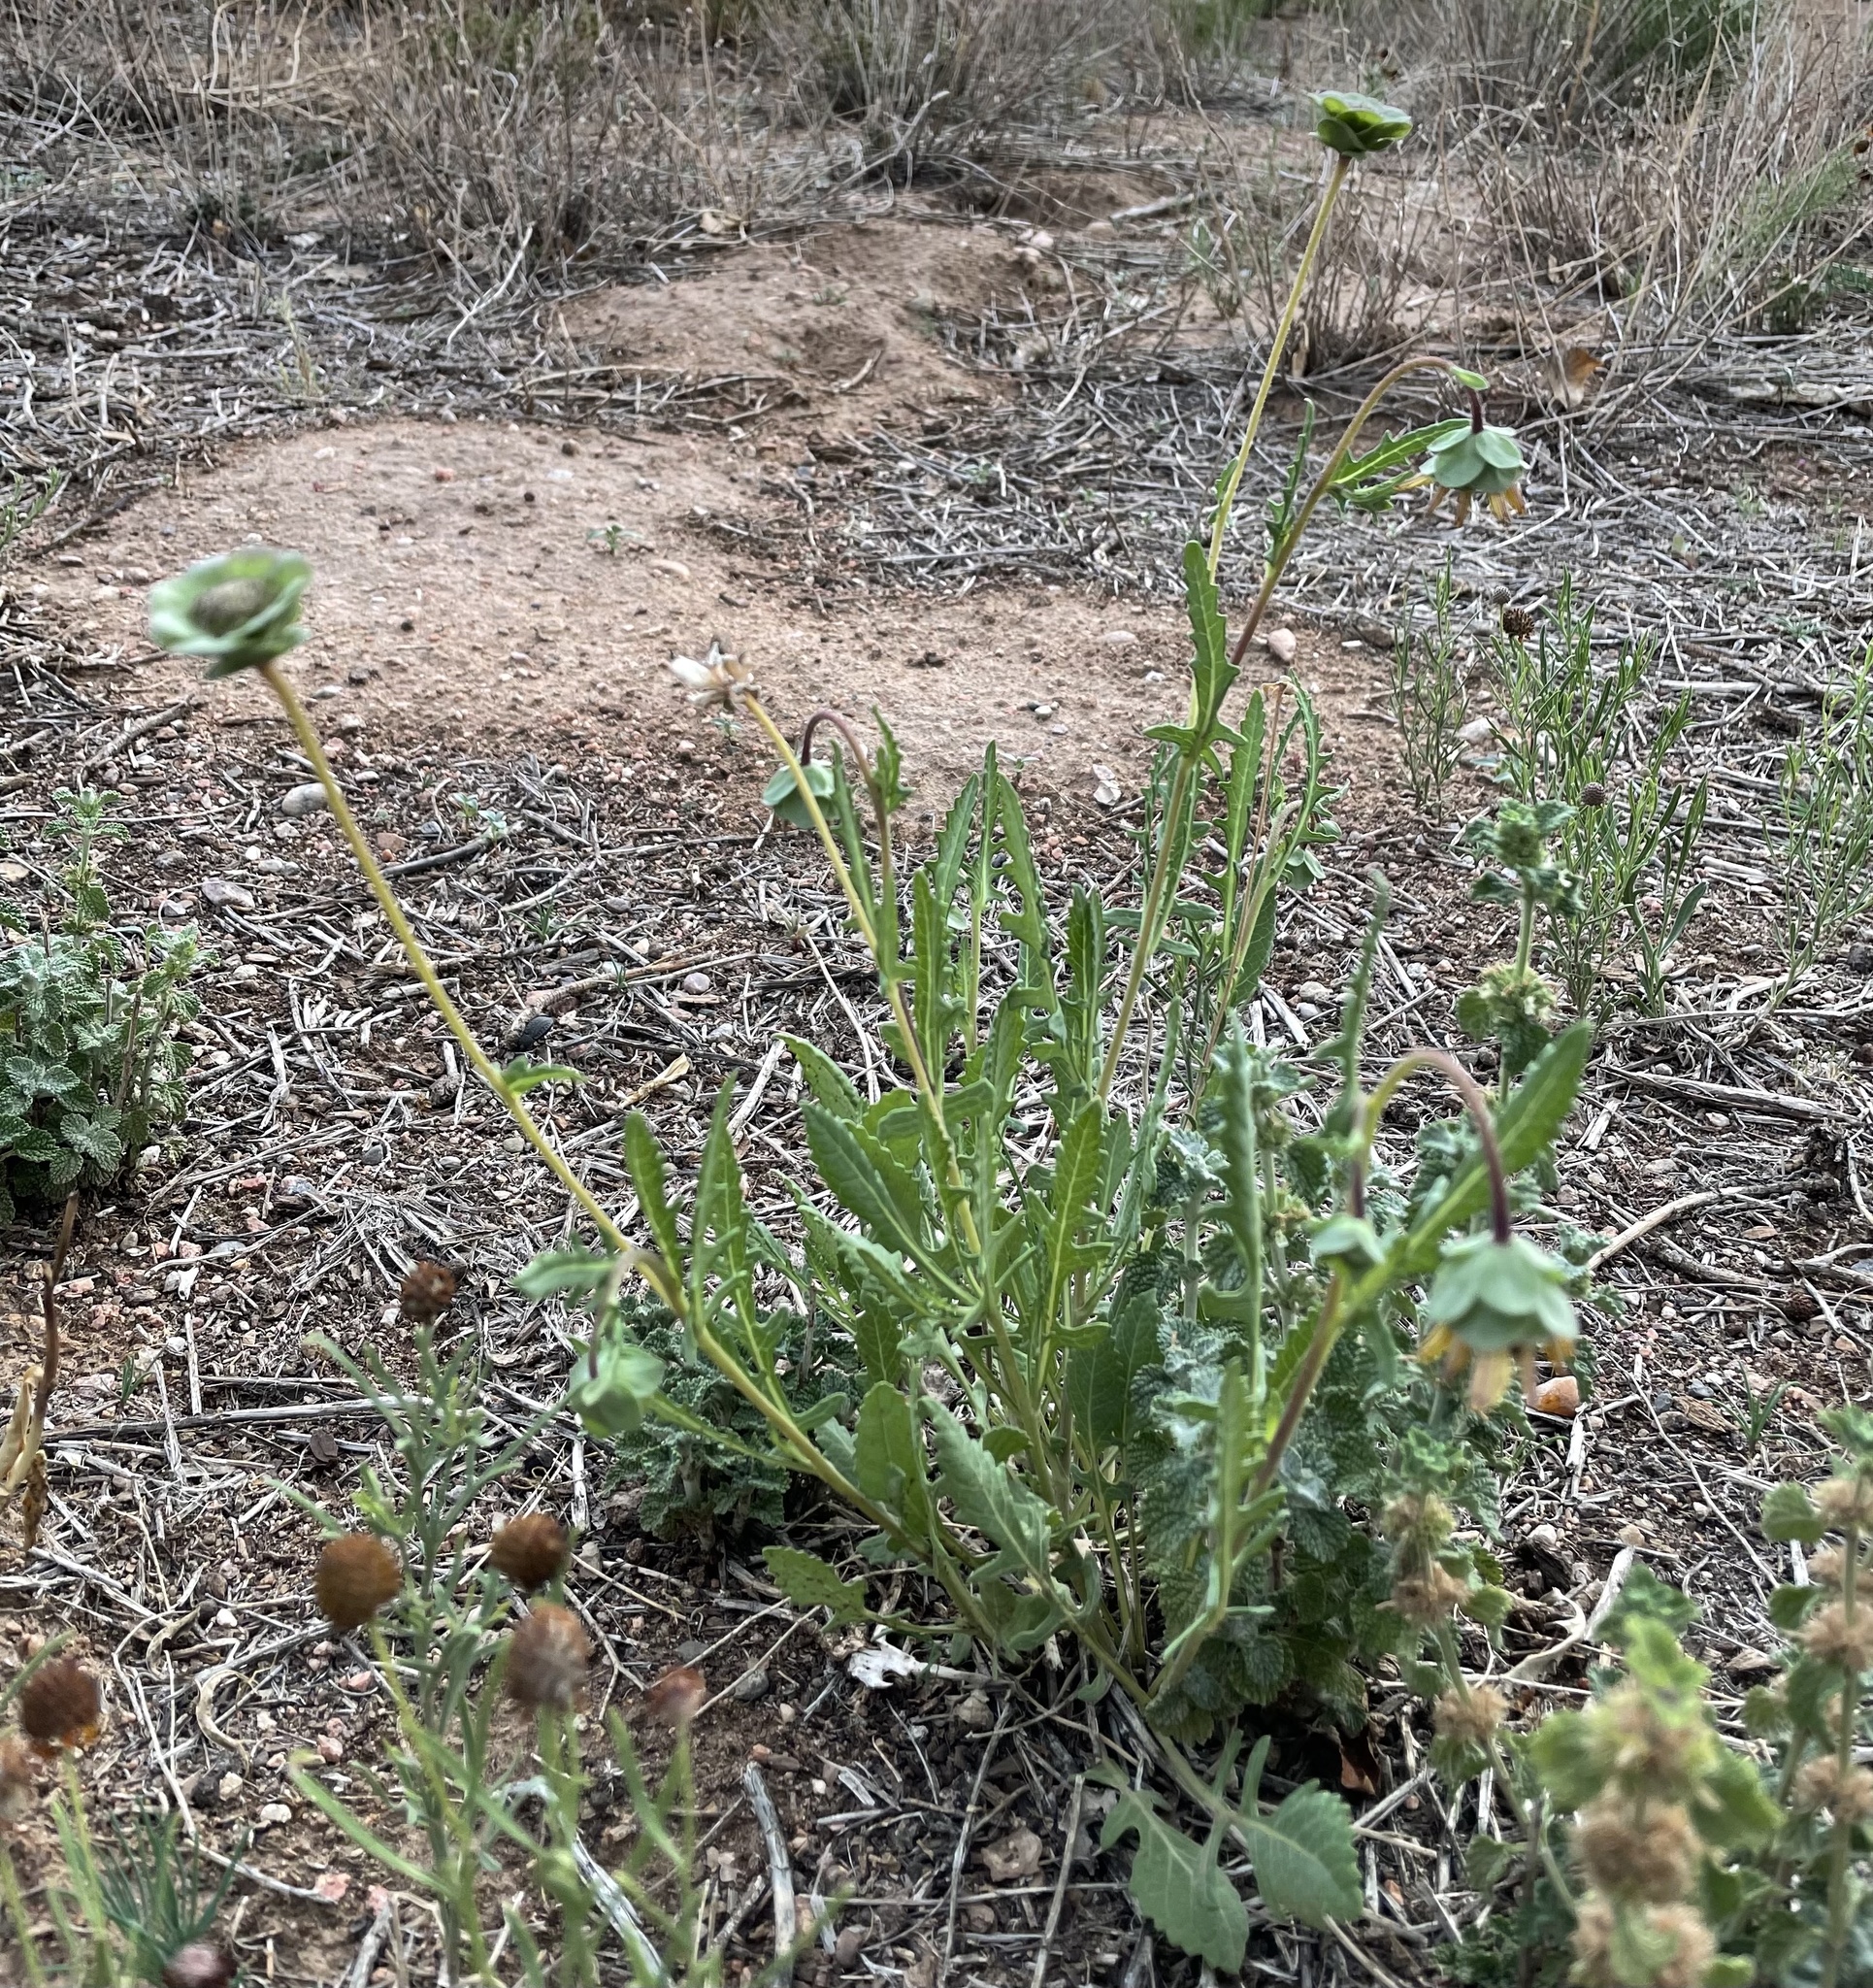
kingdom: Plantae
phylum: Tracheophyta
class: Magnoliopsida
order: Asterales
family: Asteraceae
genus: Berlandiera
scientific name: Berlandiera lyrata
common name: Chocolate-flower
